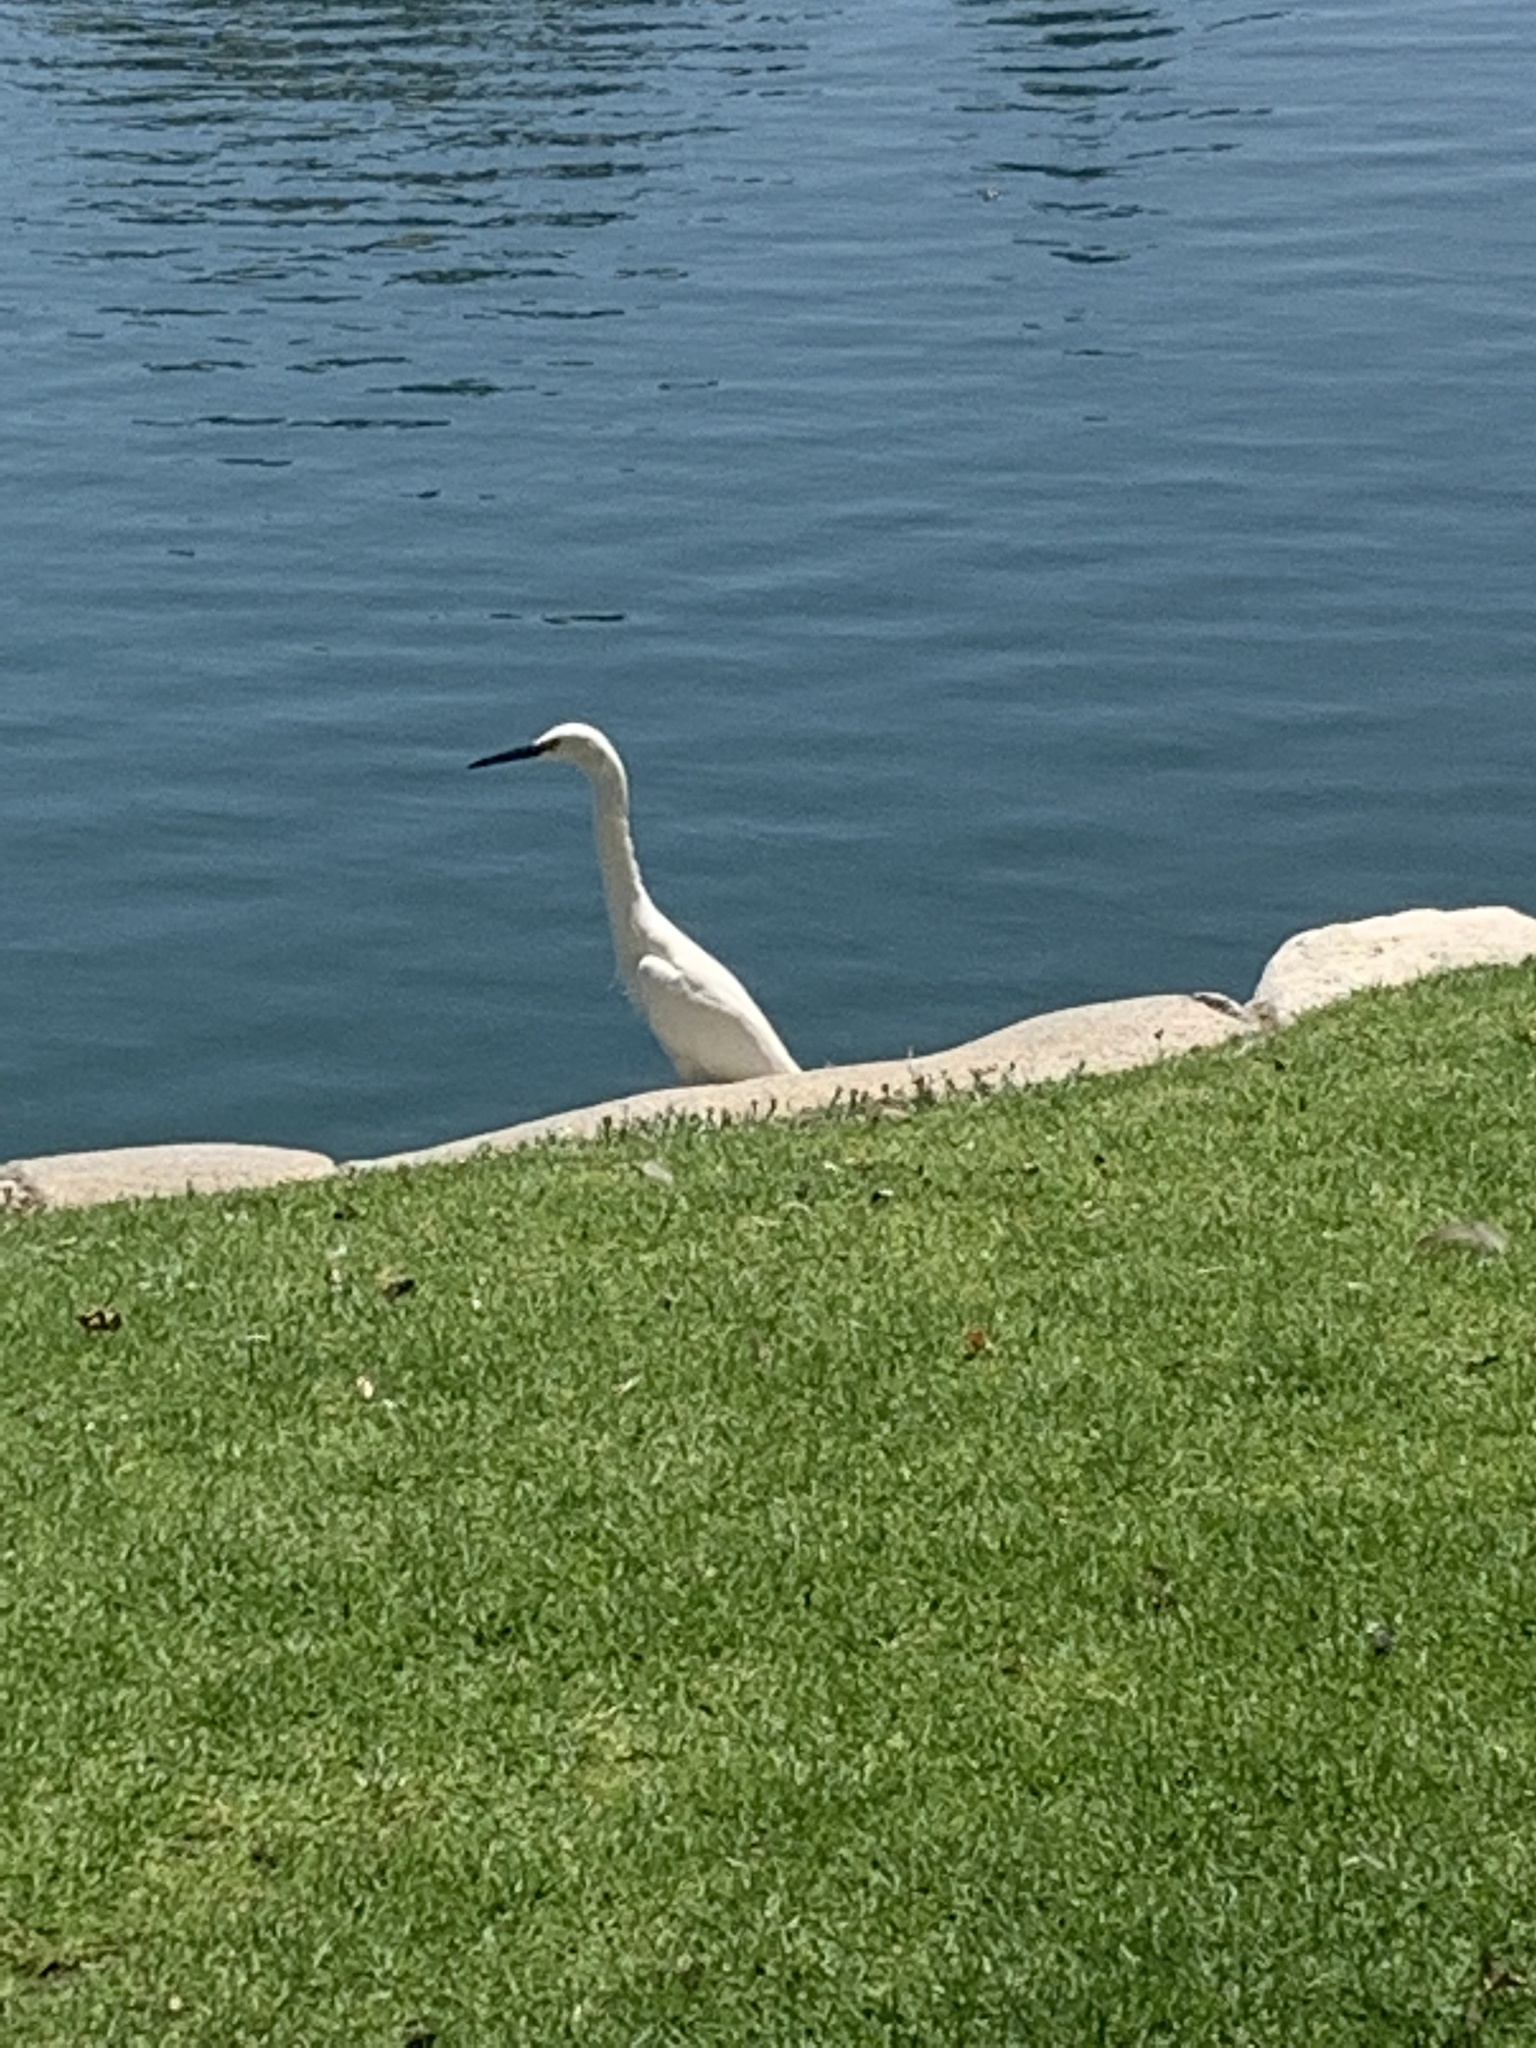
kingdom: Animalia
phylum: Chordata
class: Aves
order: Pelecaniformes
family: Ardeidae
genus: Egretta
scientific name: Egretta thula
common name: Snowy egret
